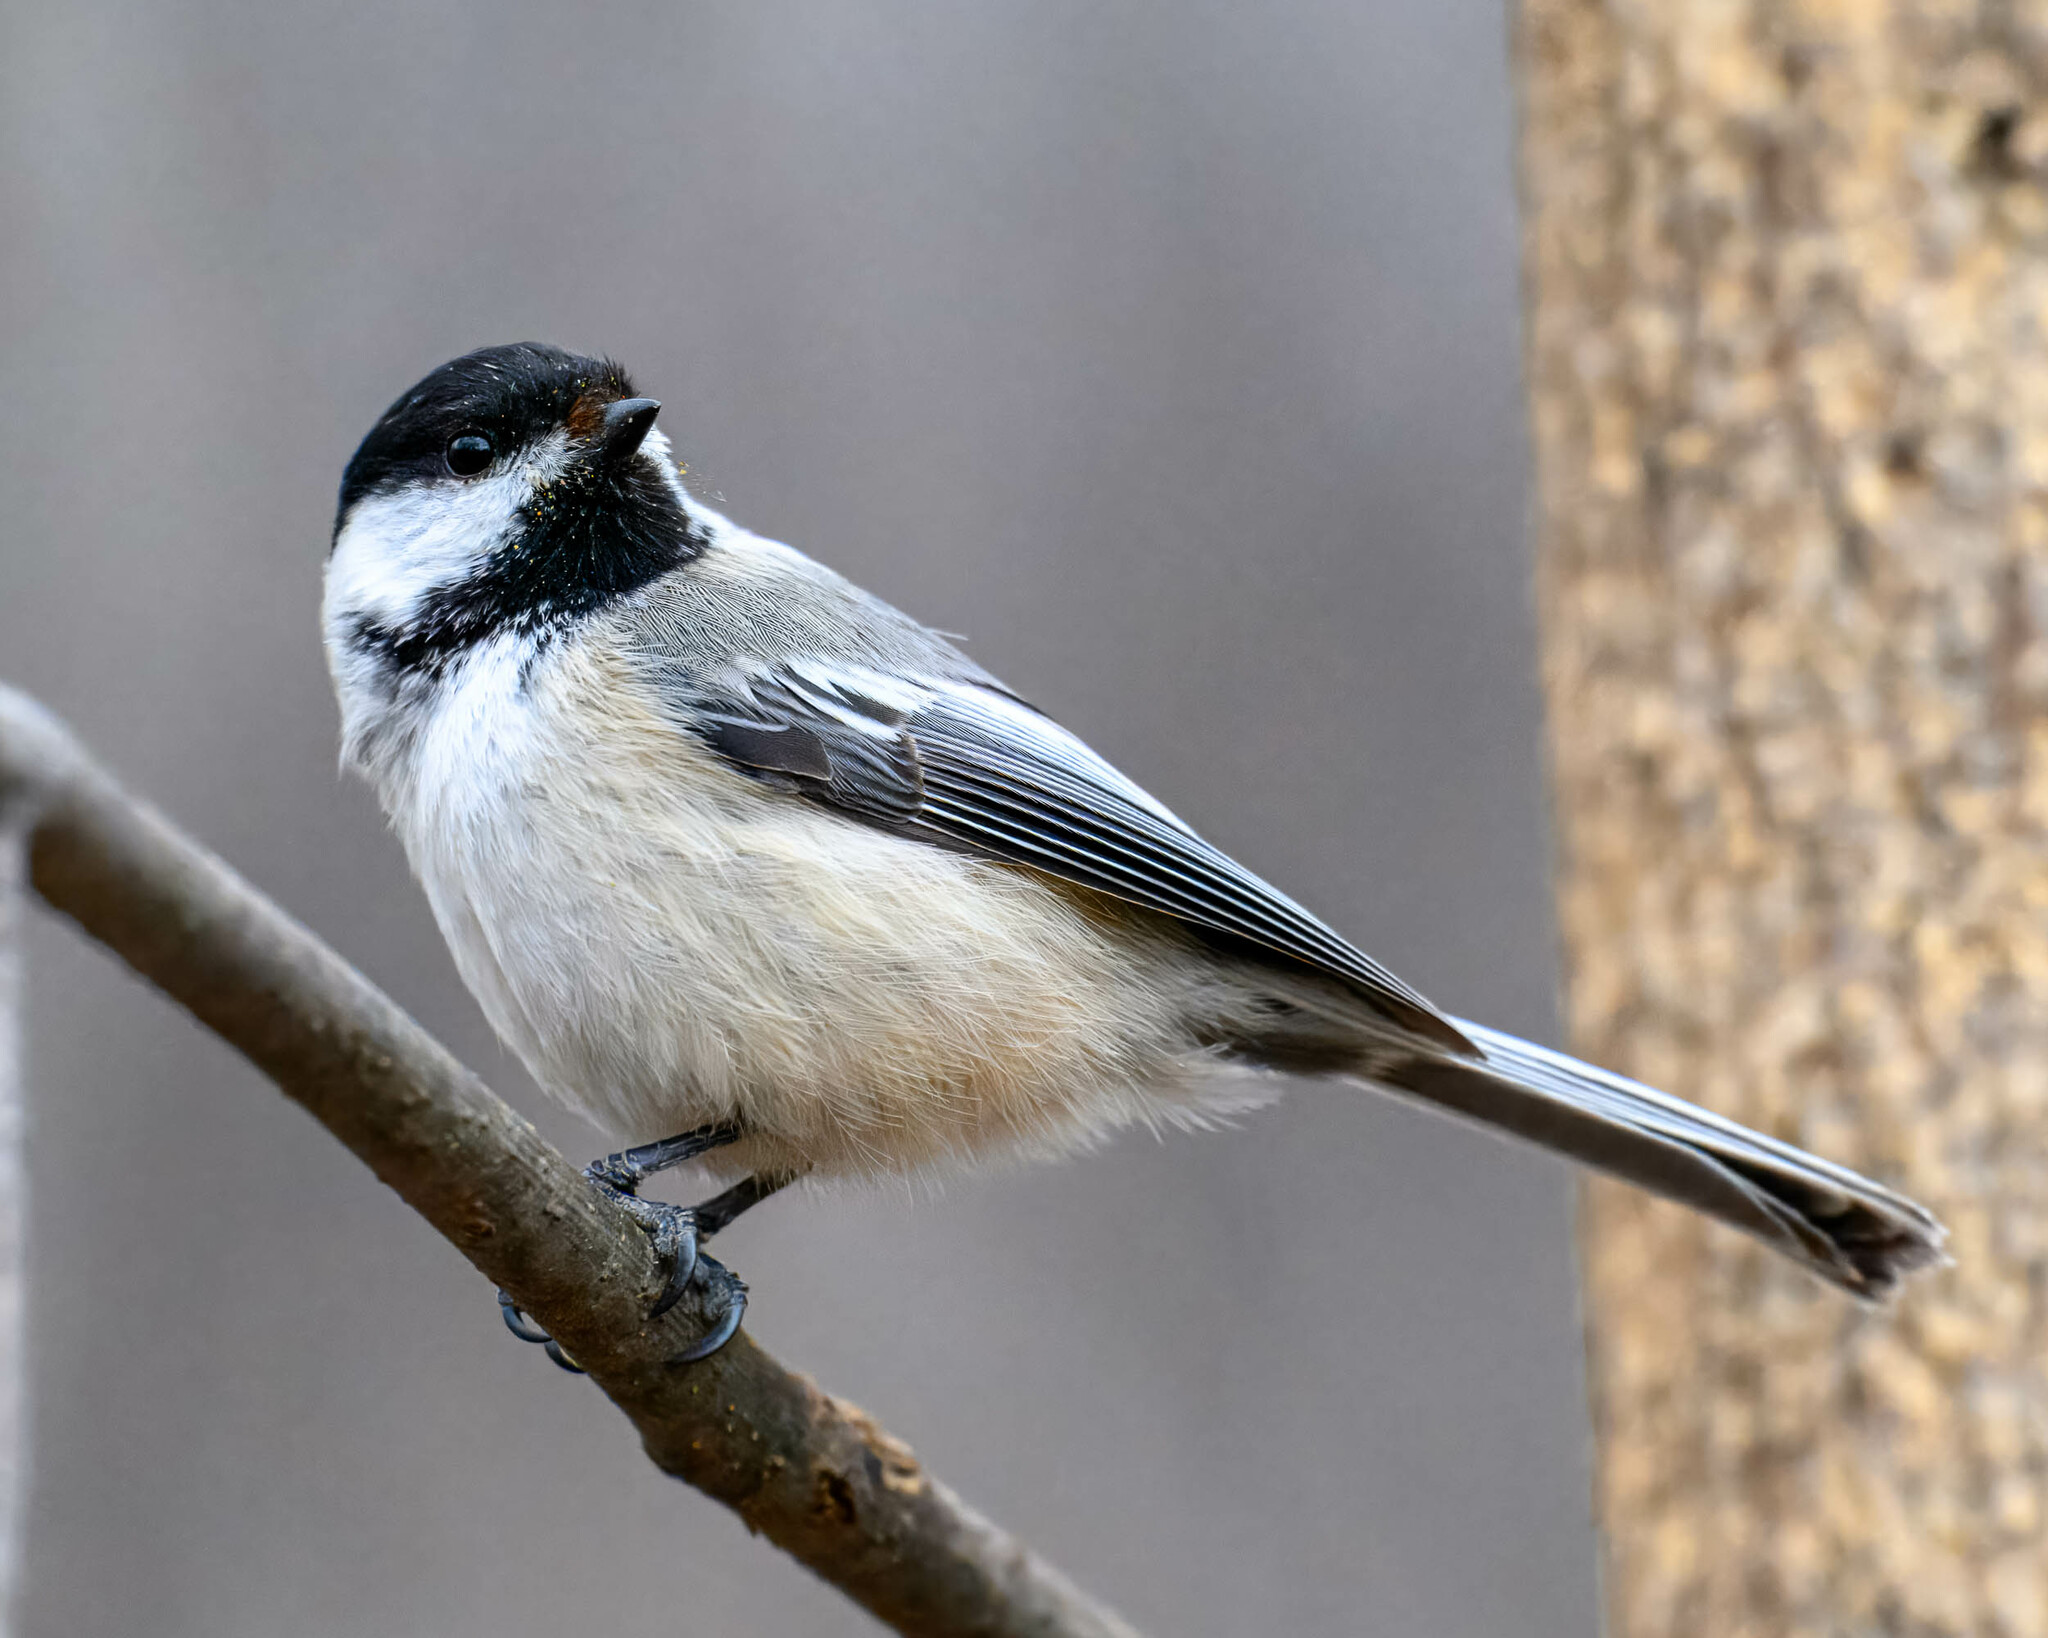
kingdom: Animalia
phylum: Chordata
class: Aves
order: Passeriformes
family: Paridae
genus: Poecile
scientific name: Poecile atricapillus
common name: Black-capped chickadee
